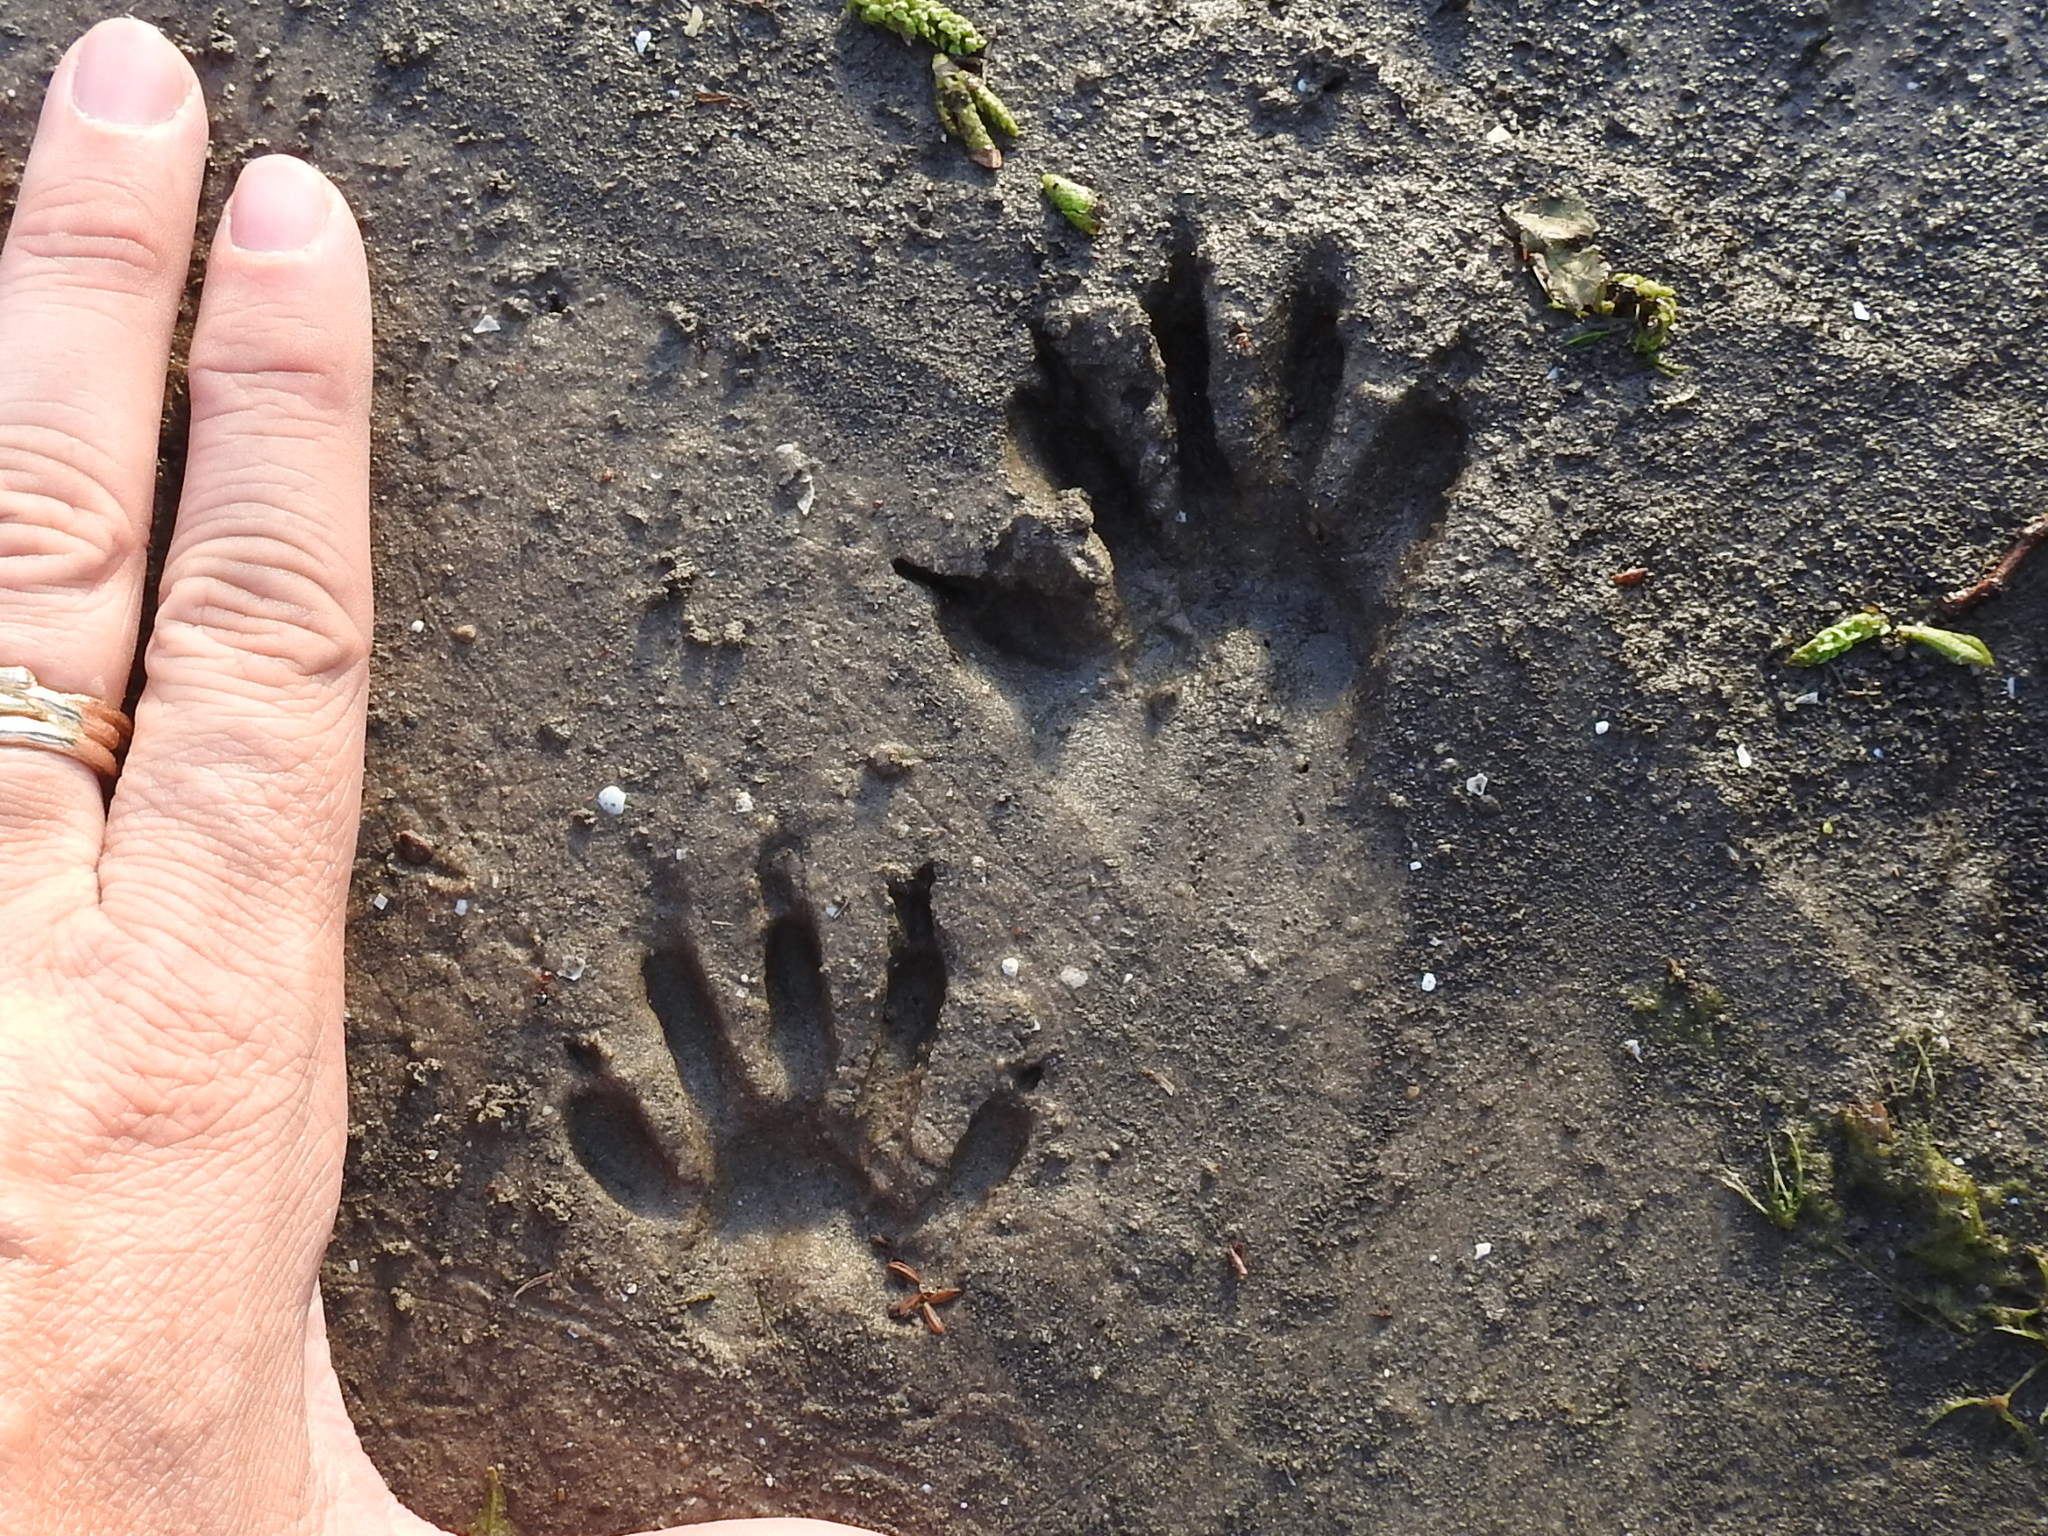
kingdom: Animalia
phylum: Chordata
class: Mammalia
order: Carnivora
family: Procyonidae
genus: Procyon
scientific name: Procyon lotor
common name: Raccoon
